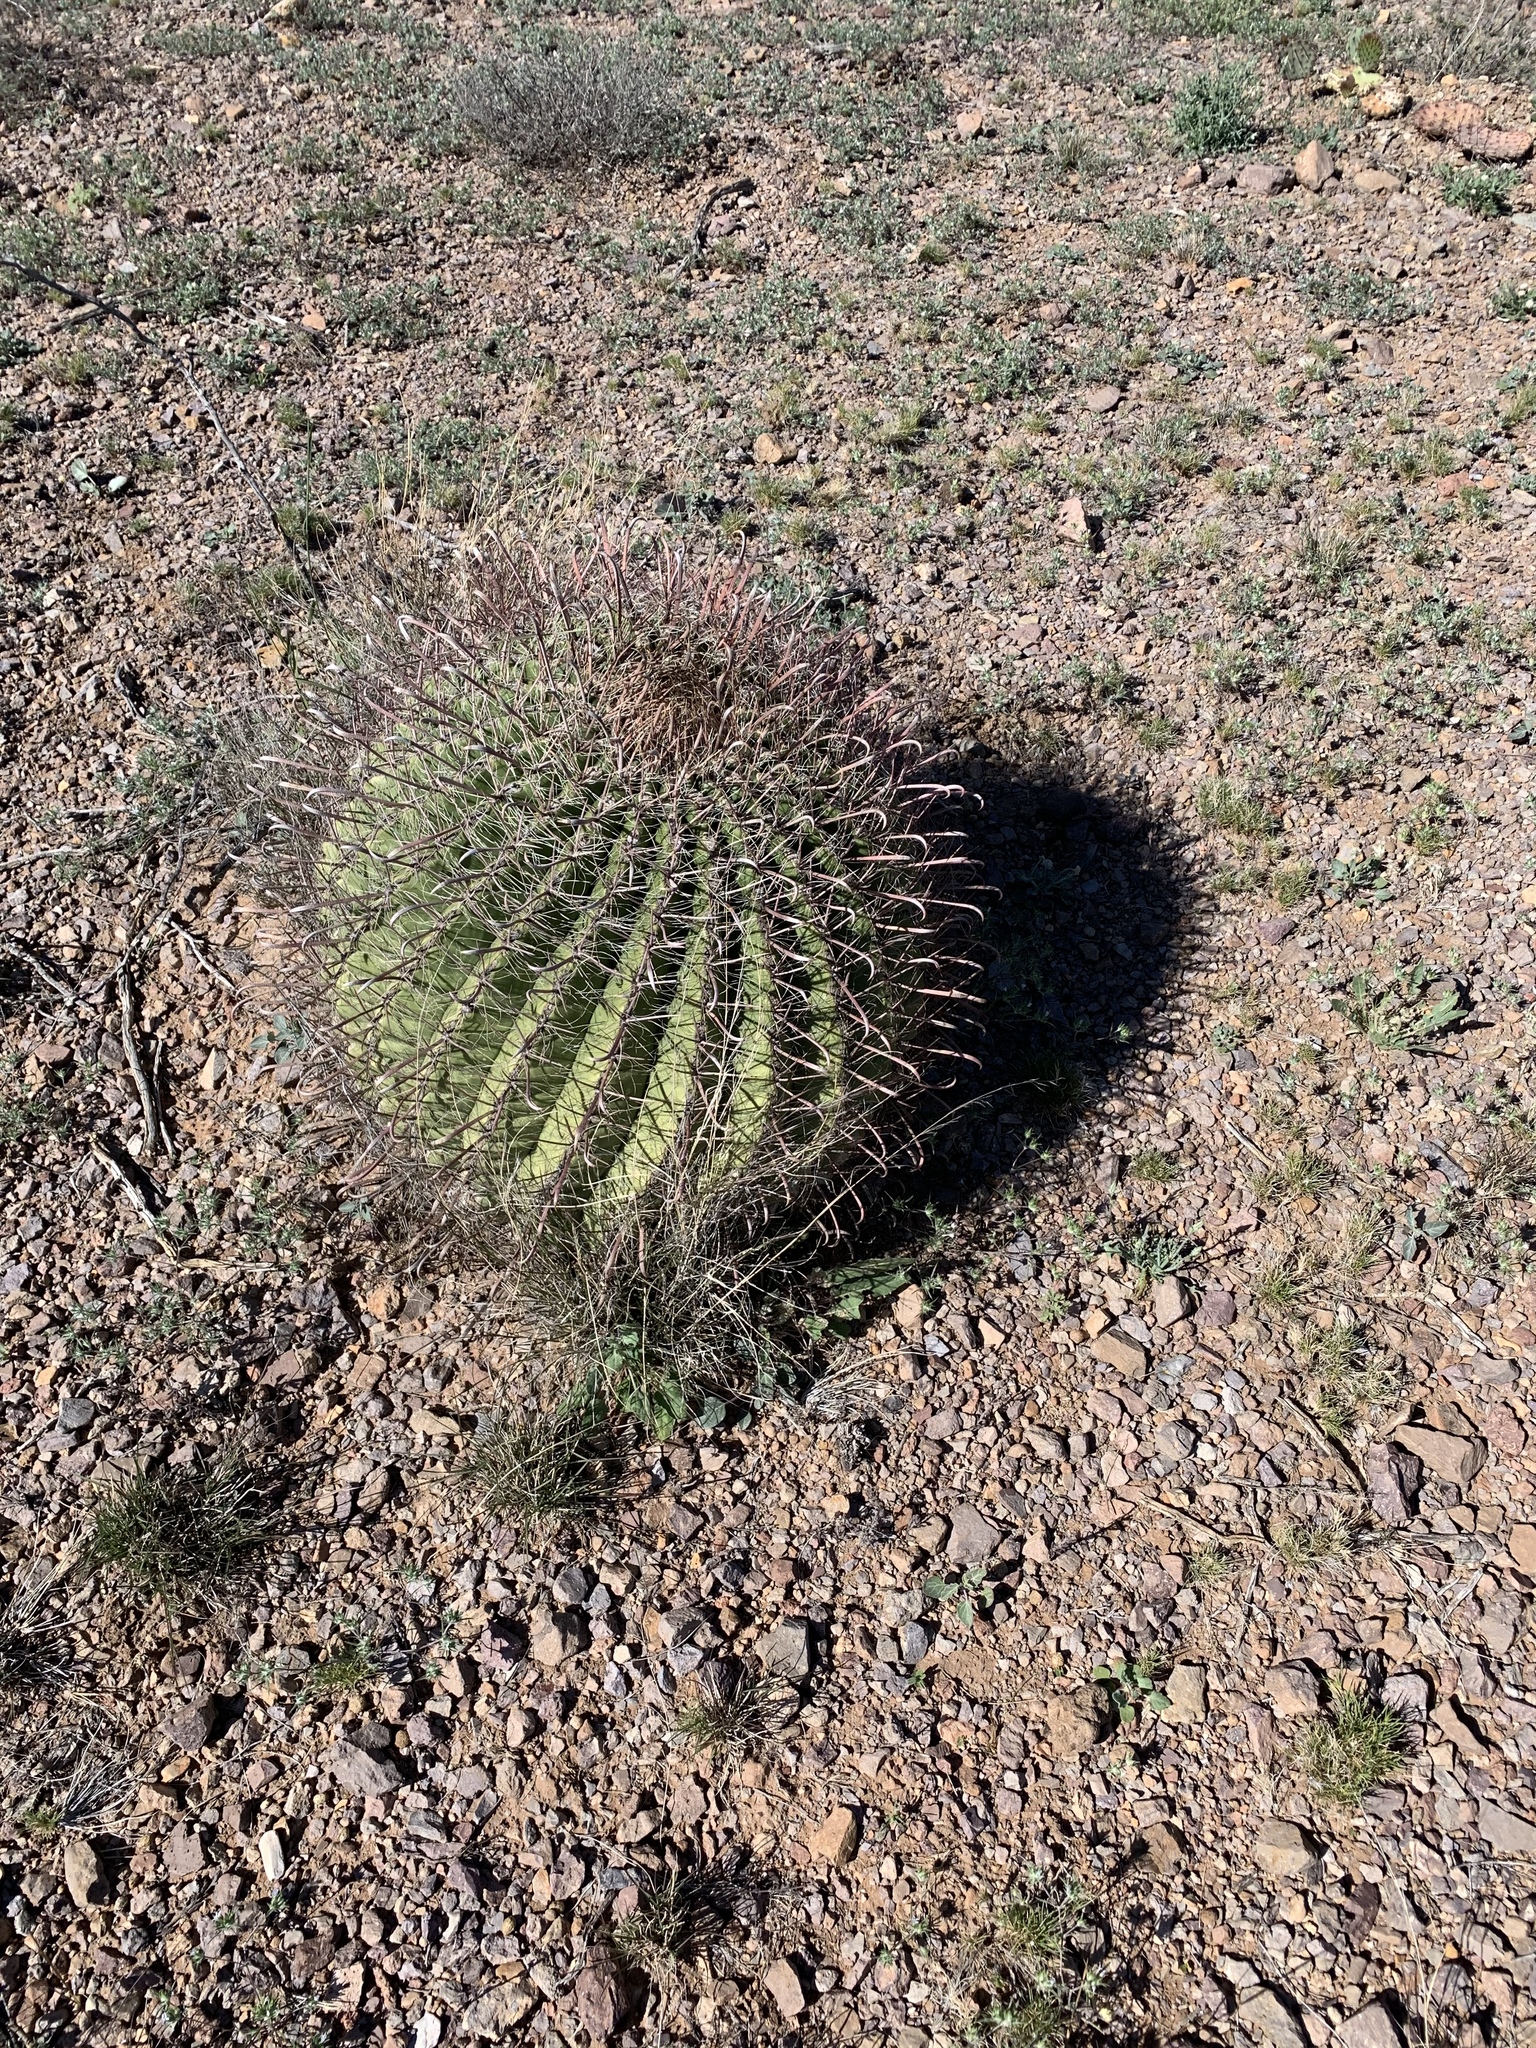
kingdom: Plantae
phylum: Tracheophyta
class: Magnoliopsida
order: Caryophyllales
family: Cactaceae
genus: Ferocactus
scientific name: Ferocactus wislizeni
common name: Candy barrel cactus
